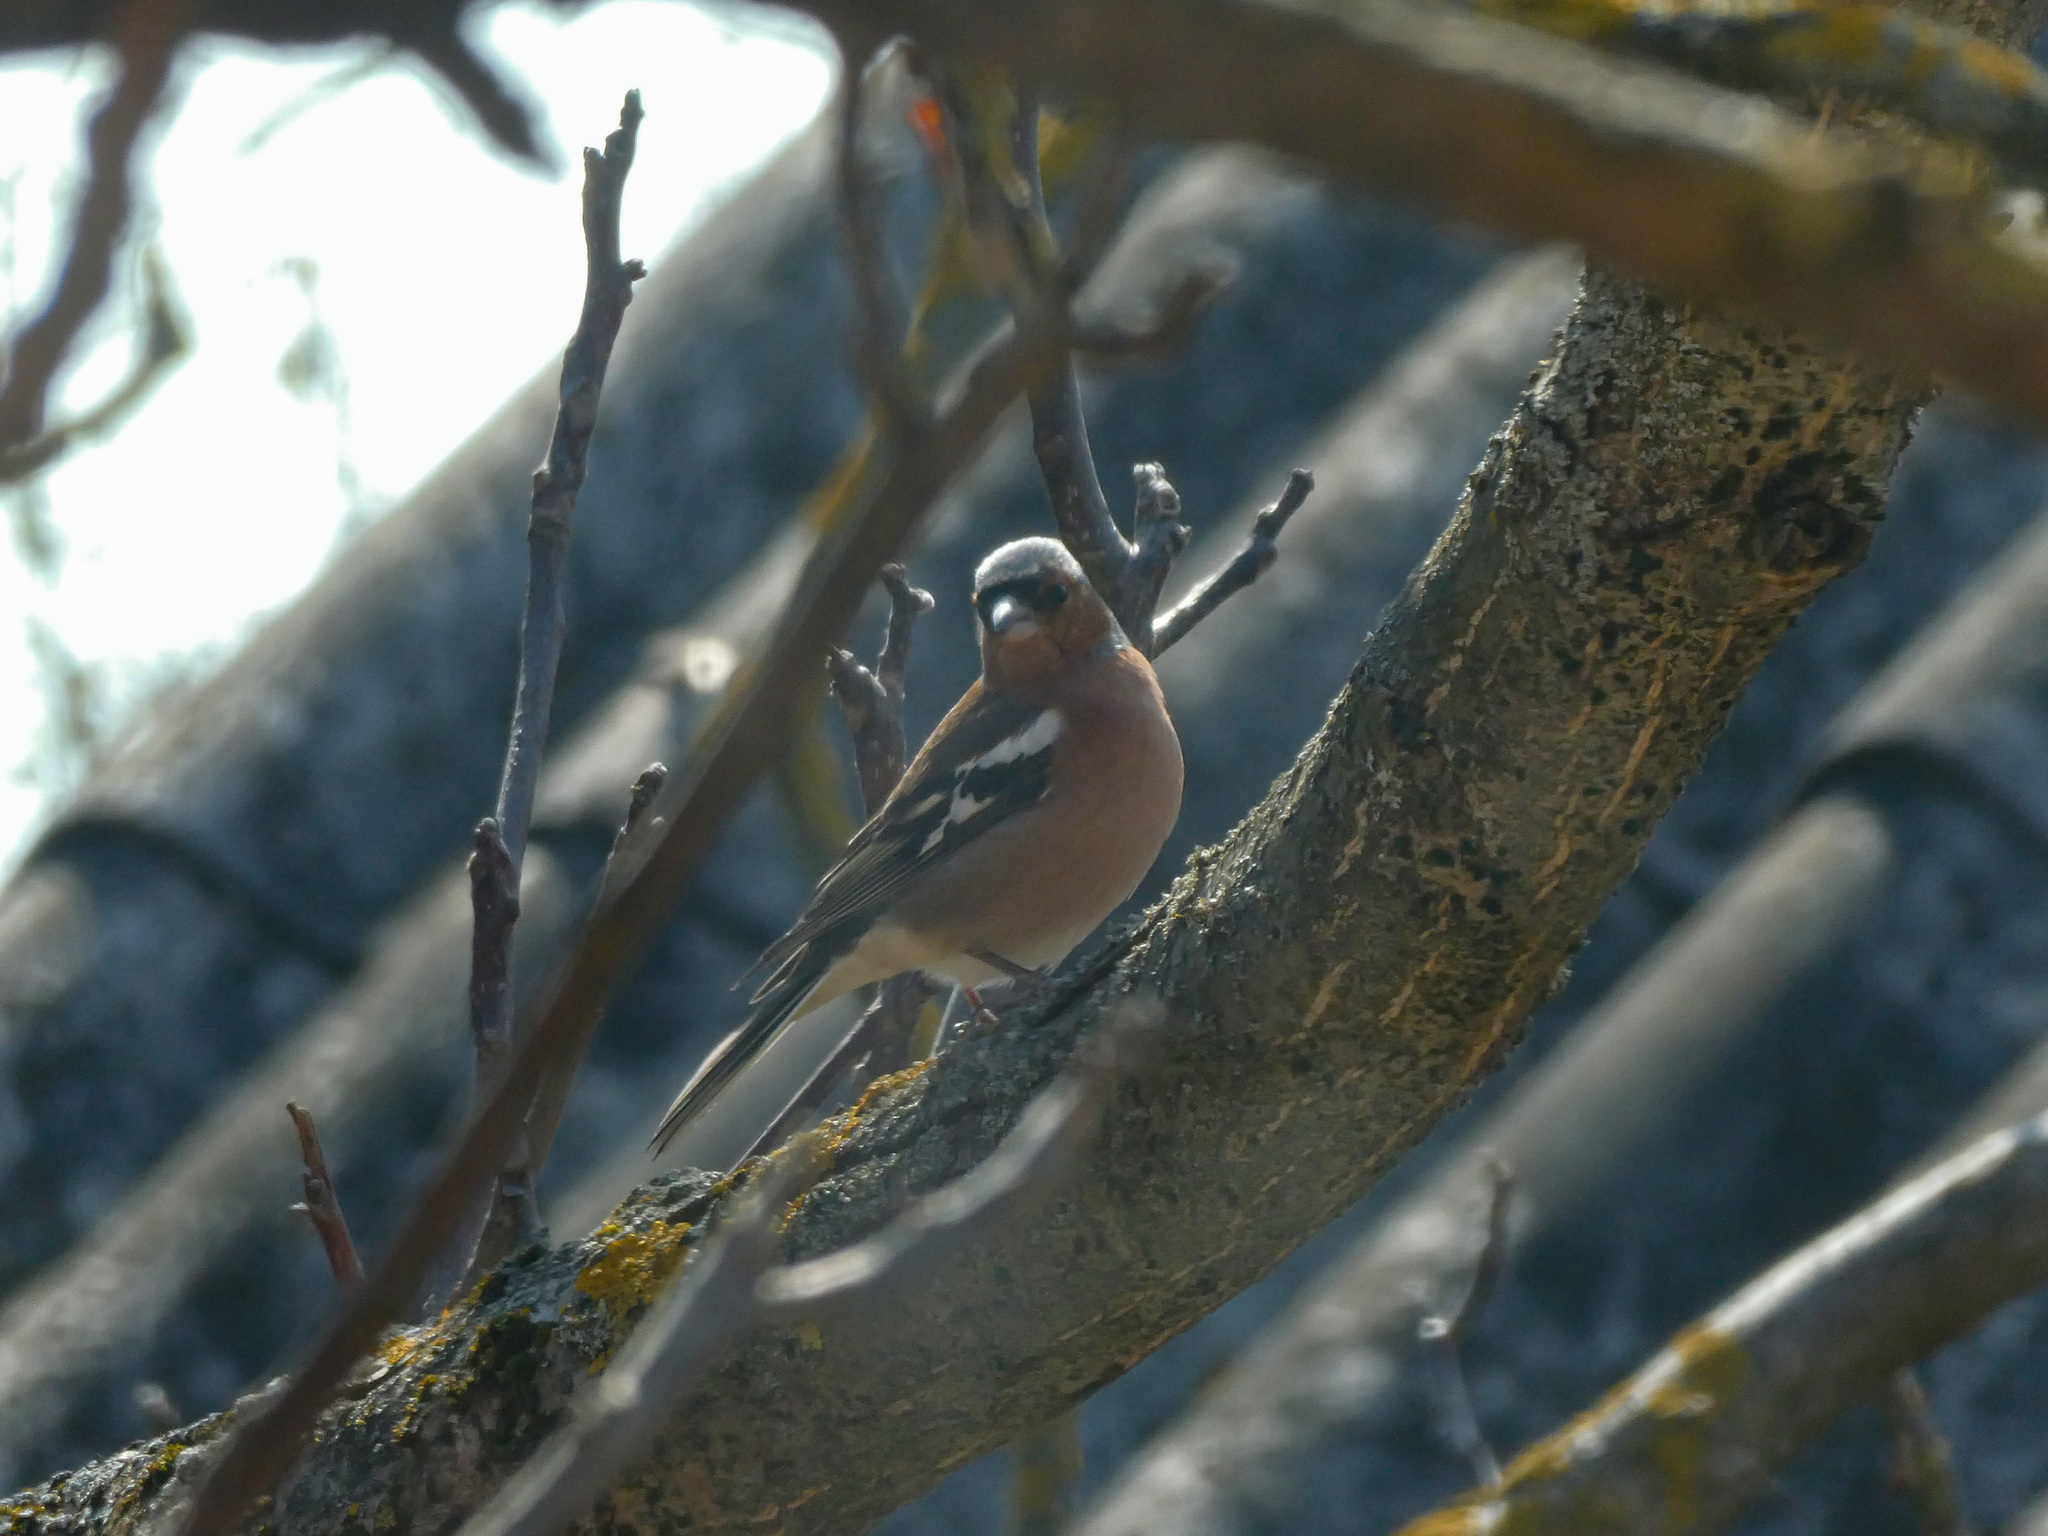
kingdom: Animalia
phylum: Chordata
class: Aves
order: Passeriformes
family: Fringillidae
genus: Fringilla
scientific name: Fringilla coelebs
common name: Common chaffinch
